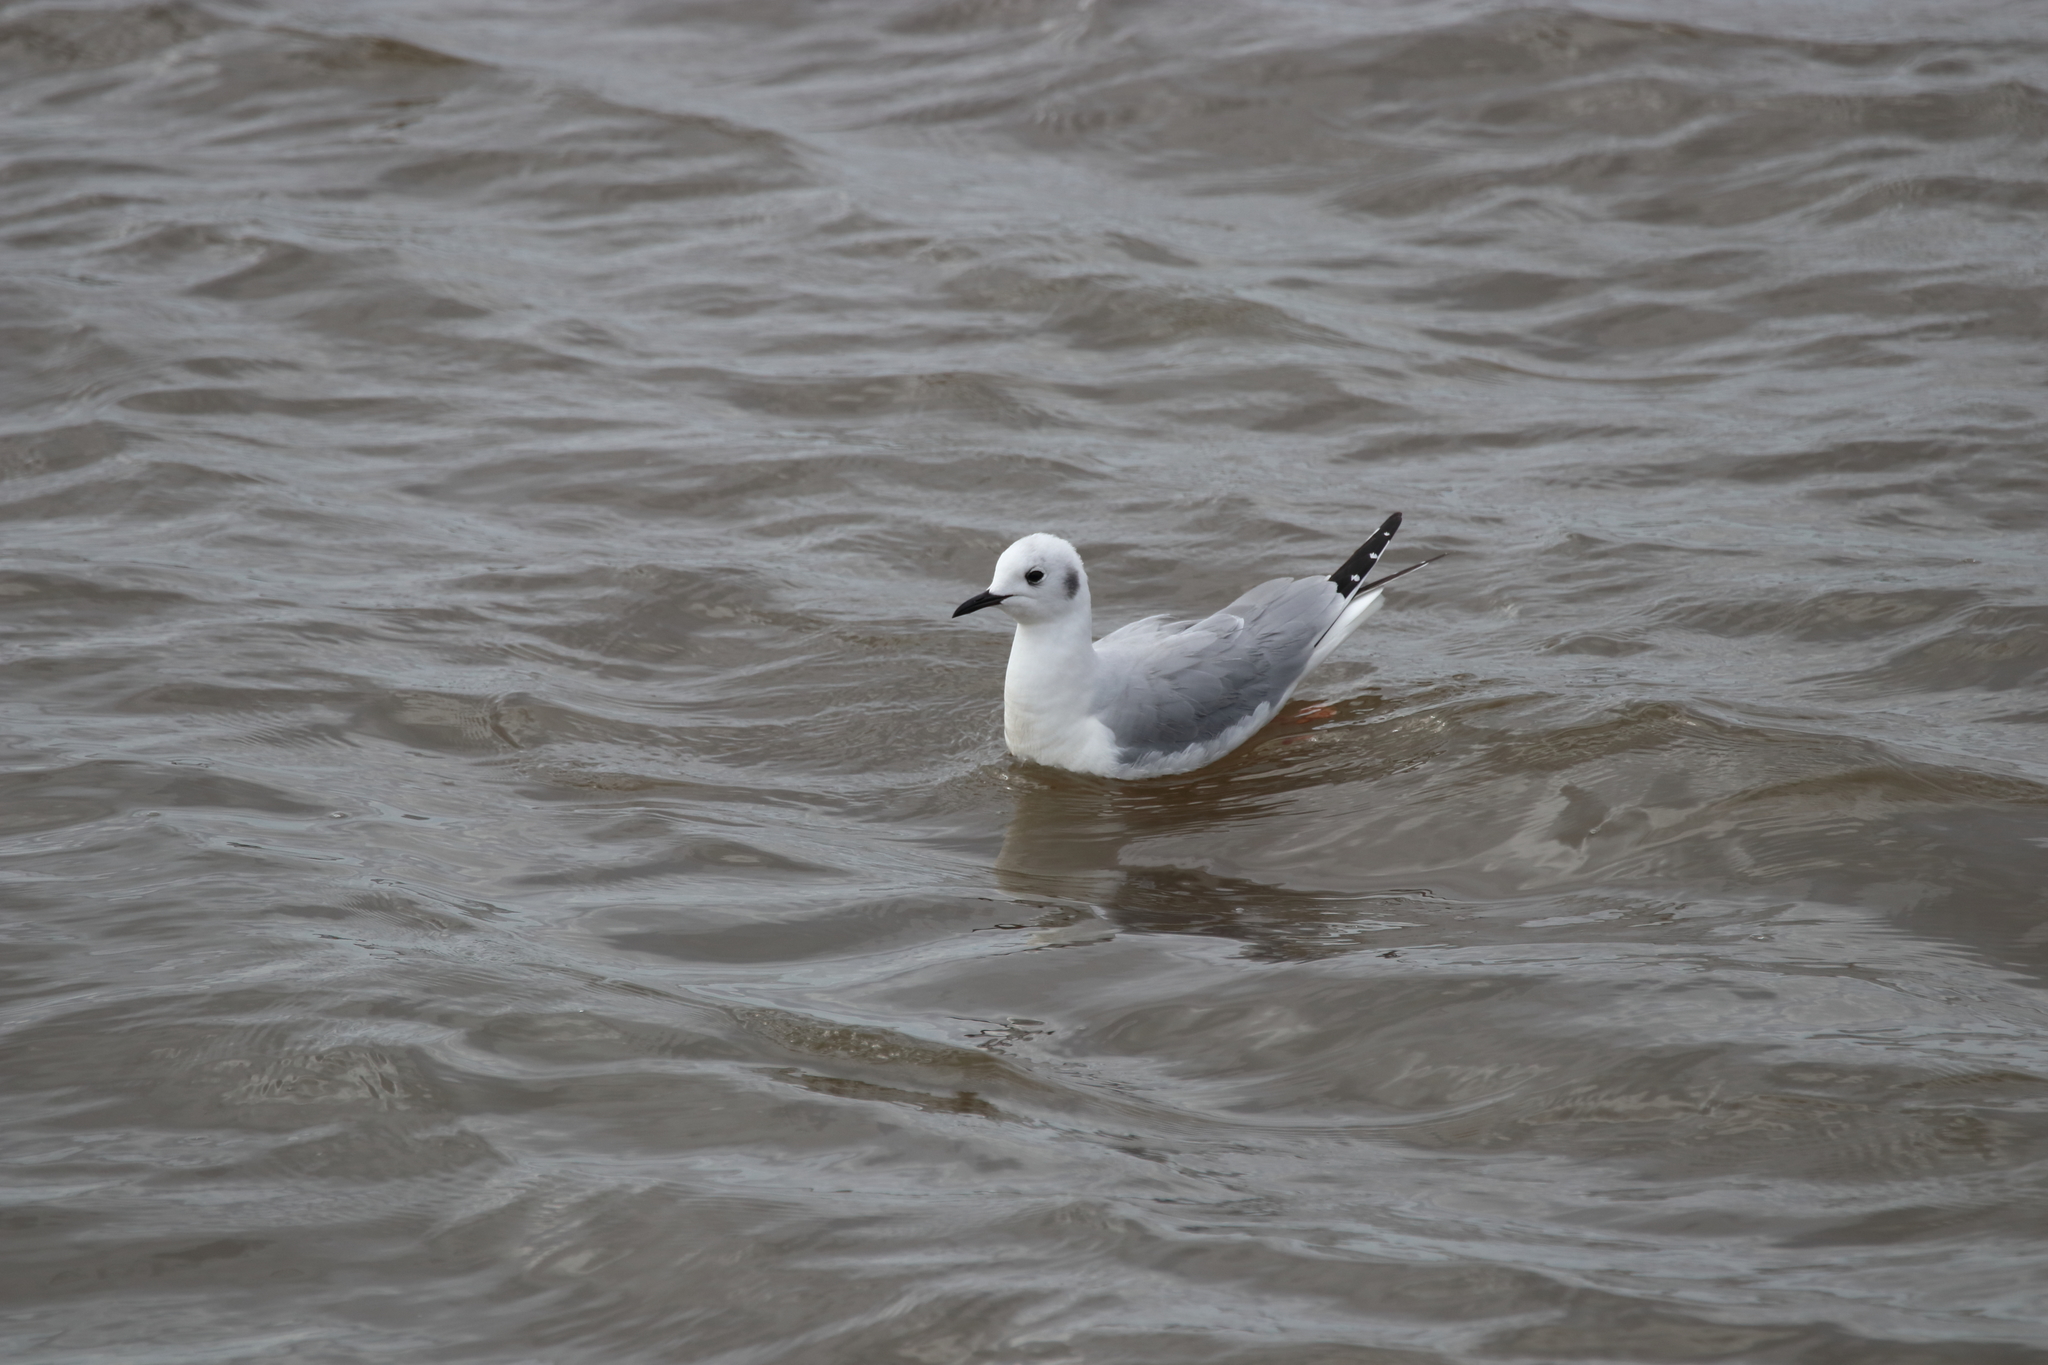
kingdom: Animalia
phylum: Chordata
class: Aves
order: Charadriiformes
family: Laridae
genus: Chroicocephalus
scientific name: Chroicocephalus philadelphia
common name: Bonaparte's gull
